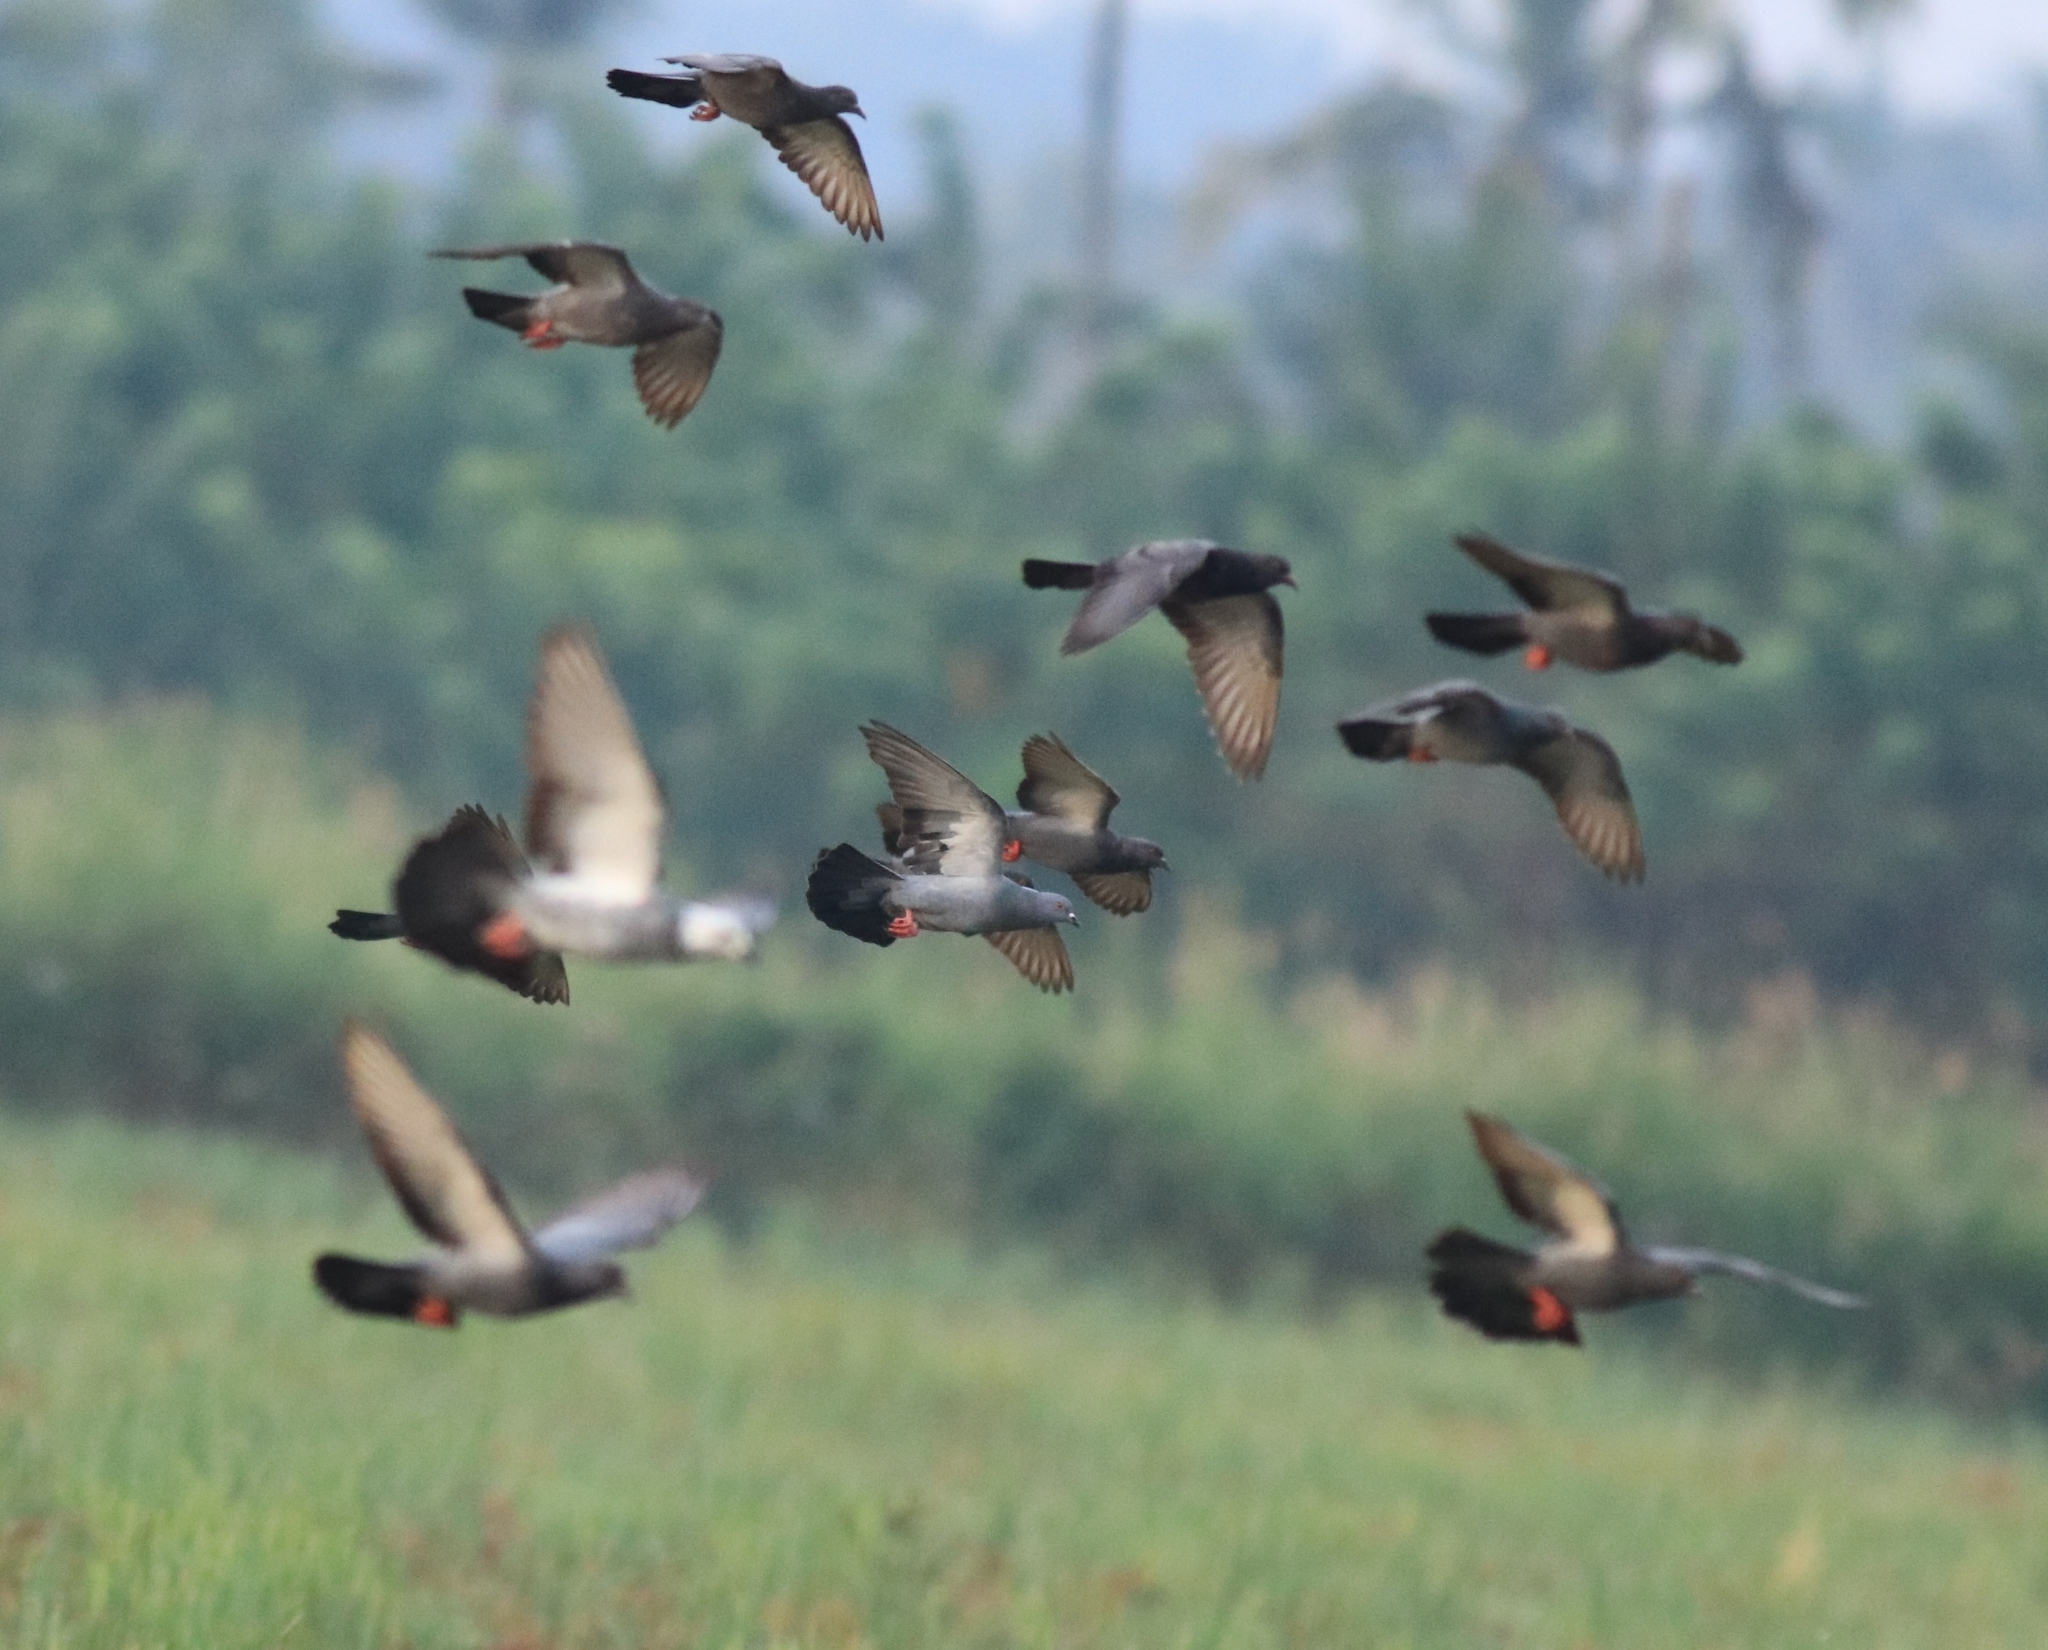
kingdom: Animalia
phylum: Chordata
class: Aves
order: Columbiformes
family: Columbidae
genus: Columba
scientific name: Columba livia
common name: Rock pigeon
